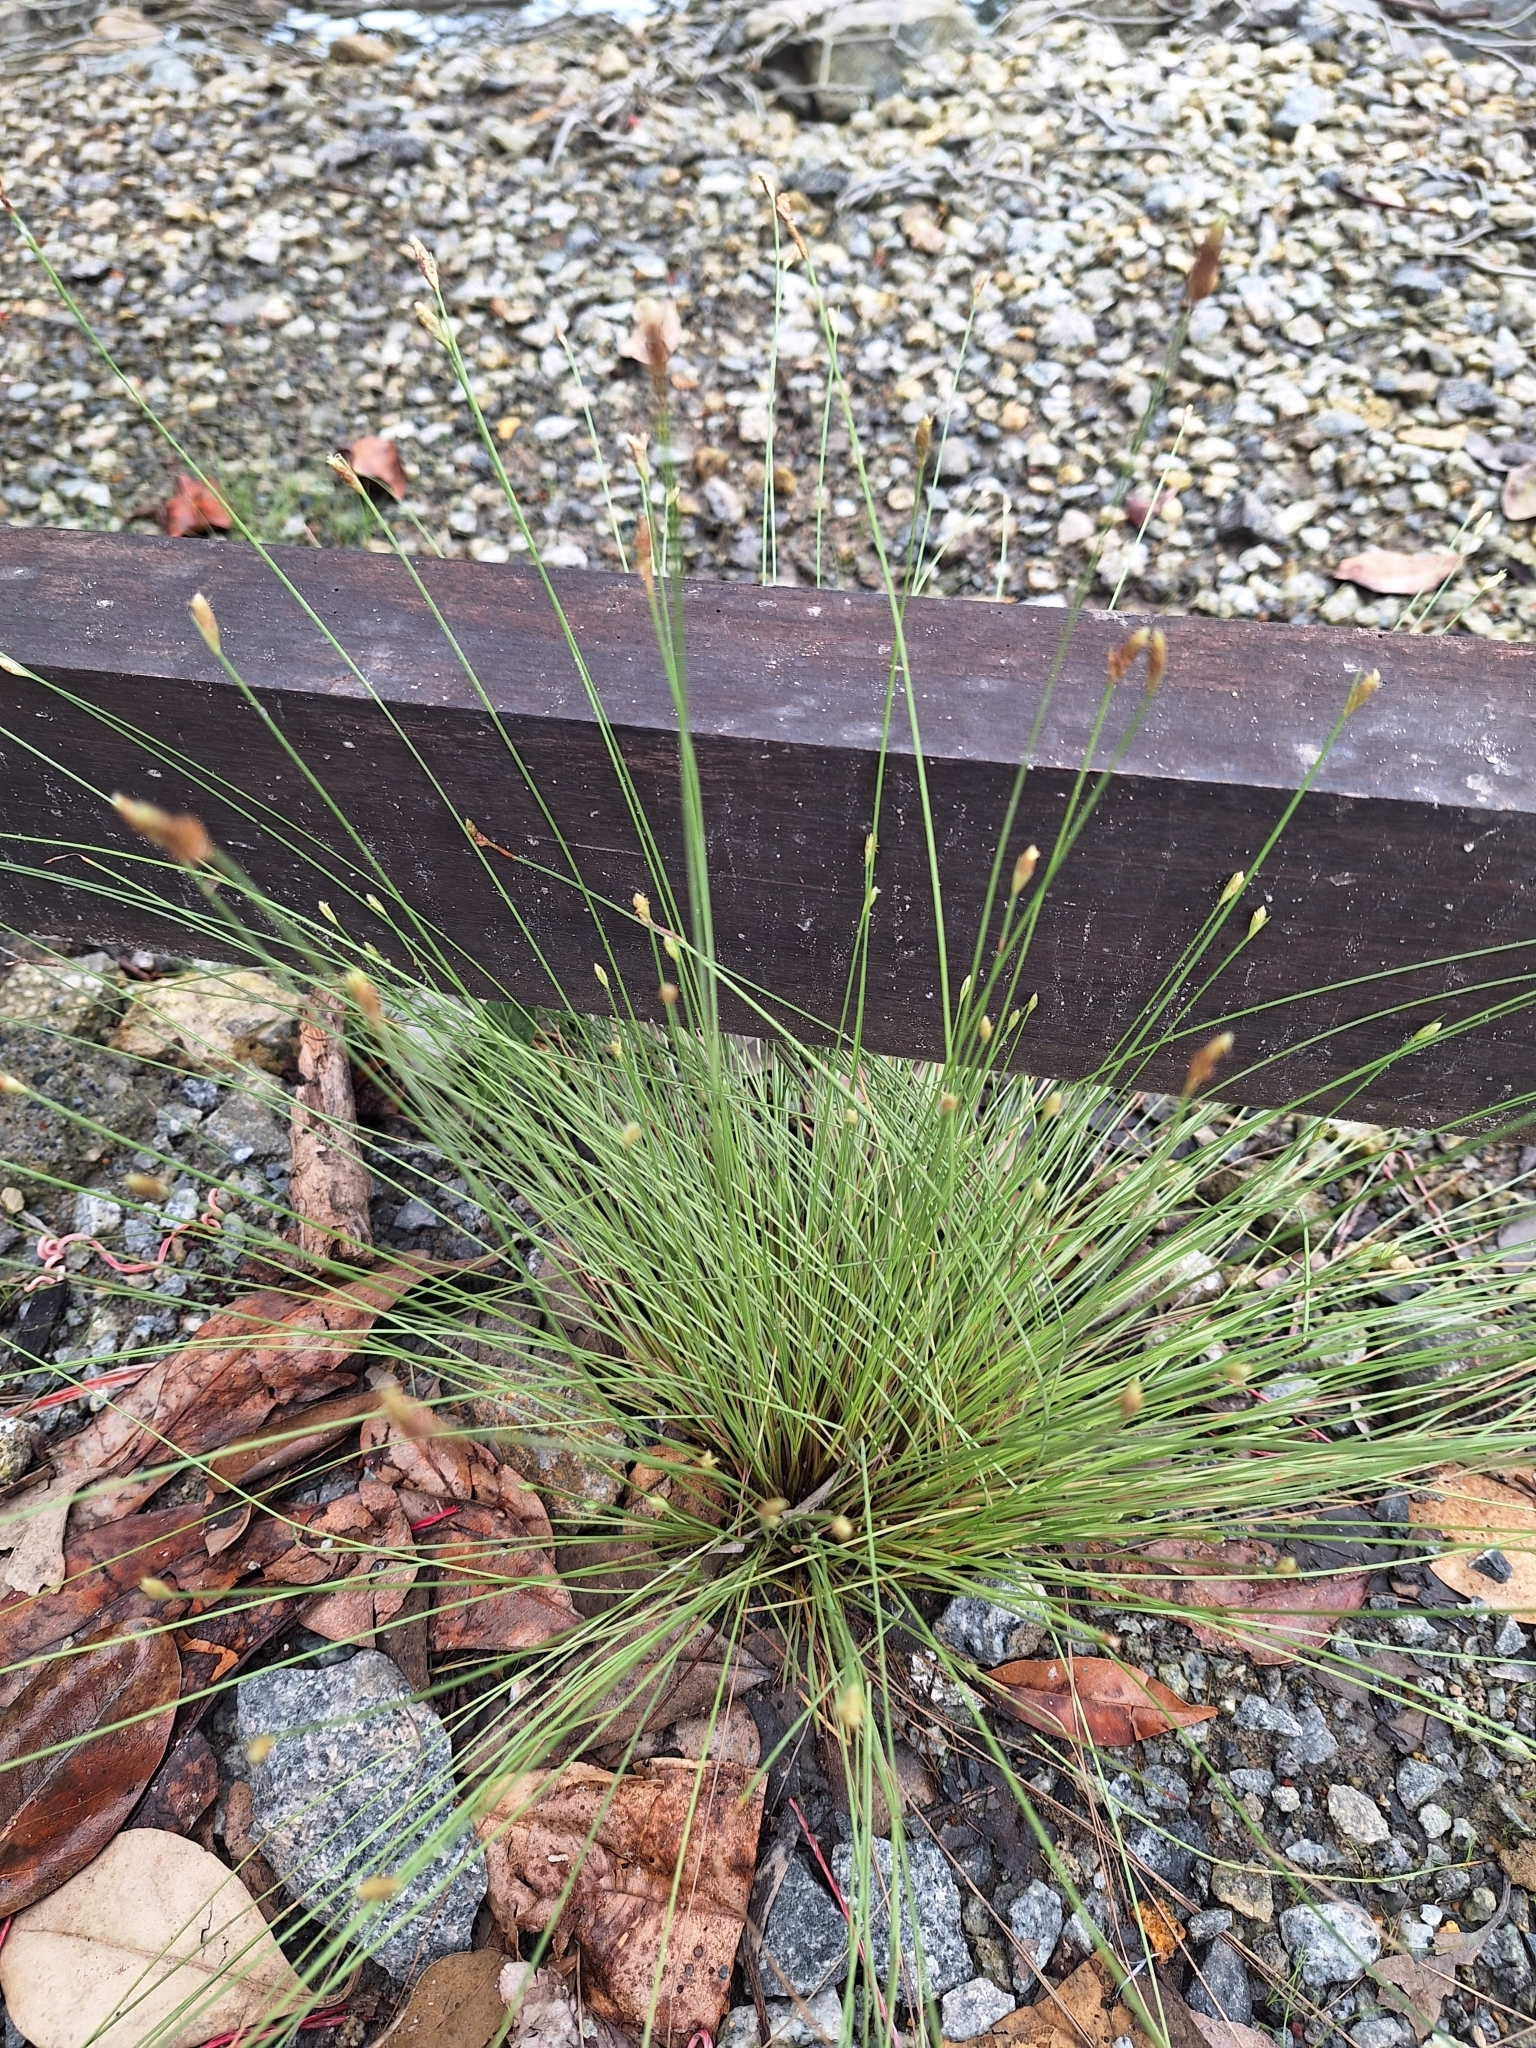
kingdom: Plantae
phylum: Tracheophyta
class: Liliopsida
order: Poales
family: Cyperaceae
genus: Fimbristylis
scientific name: Fimbristylis polytrichoides
